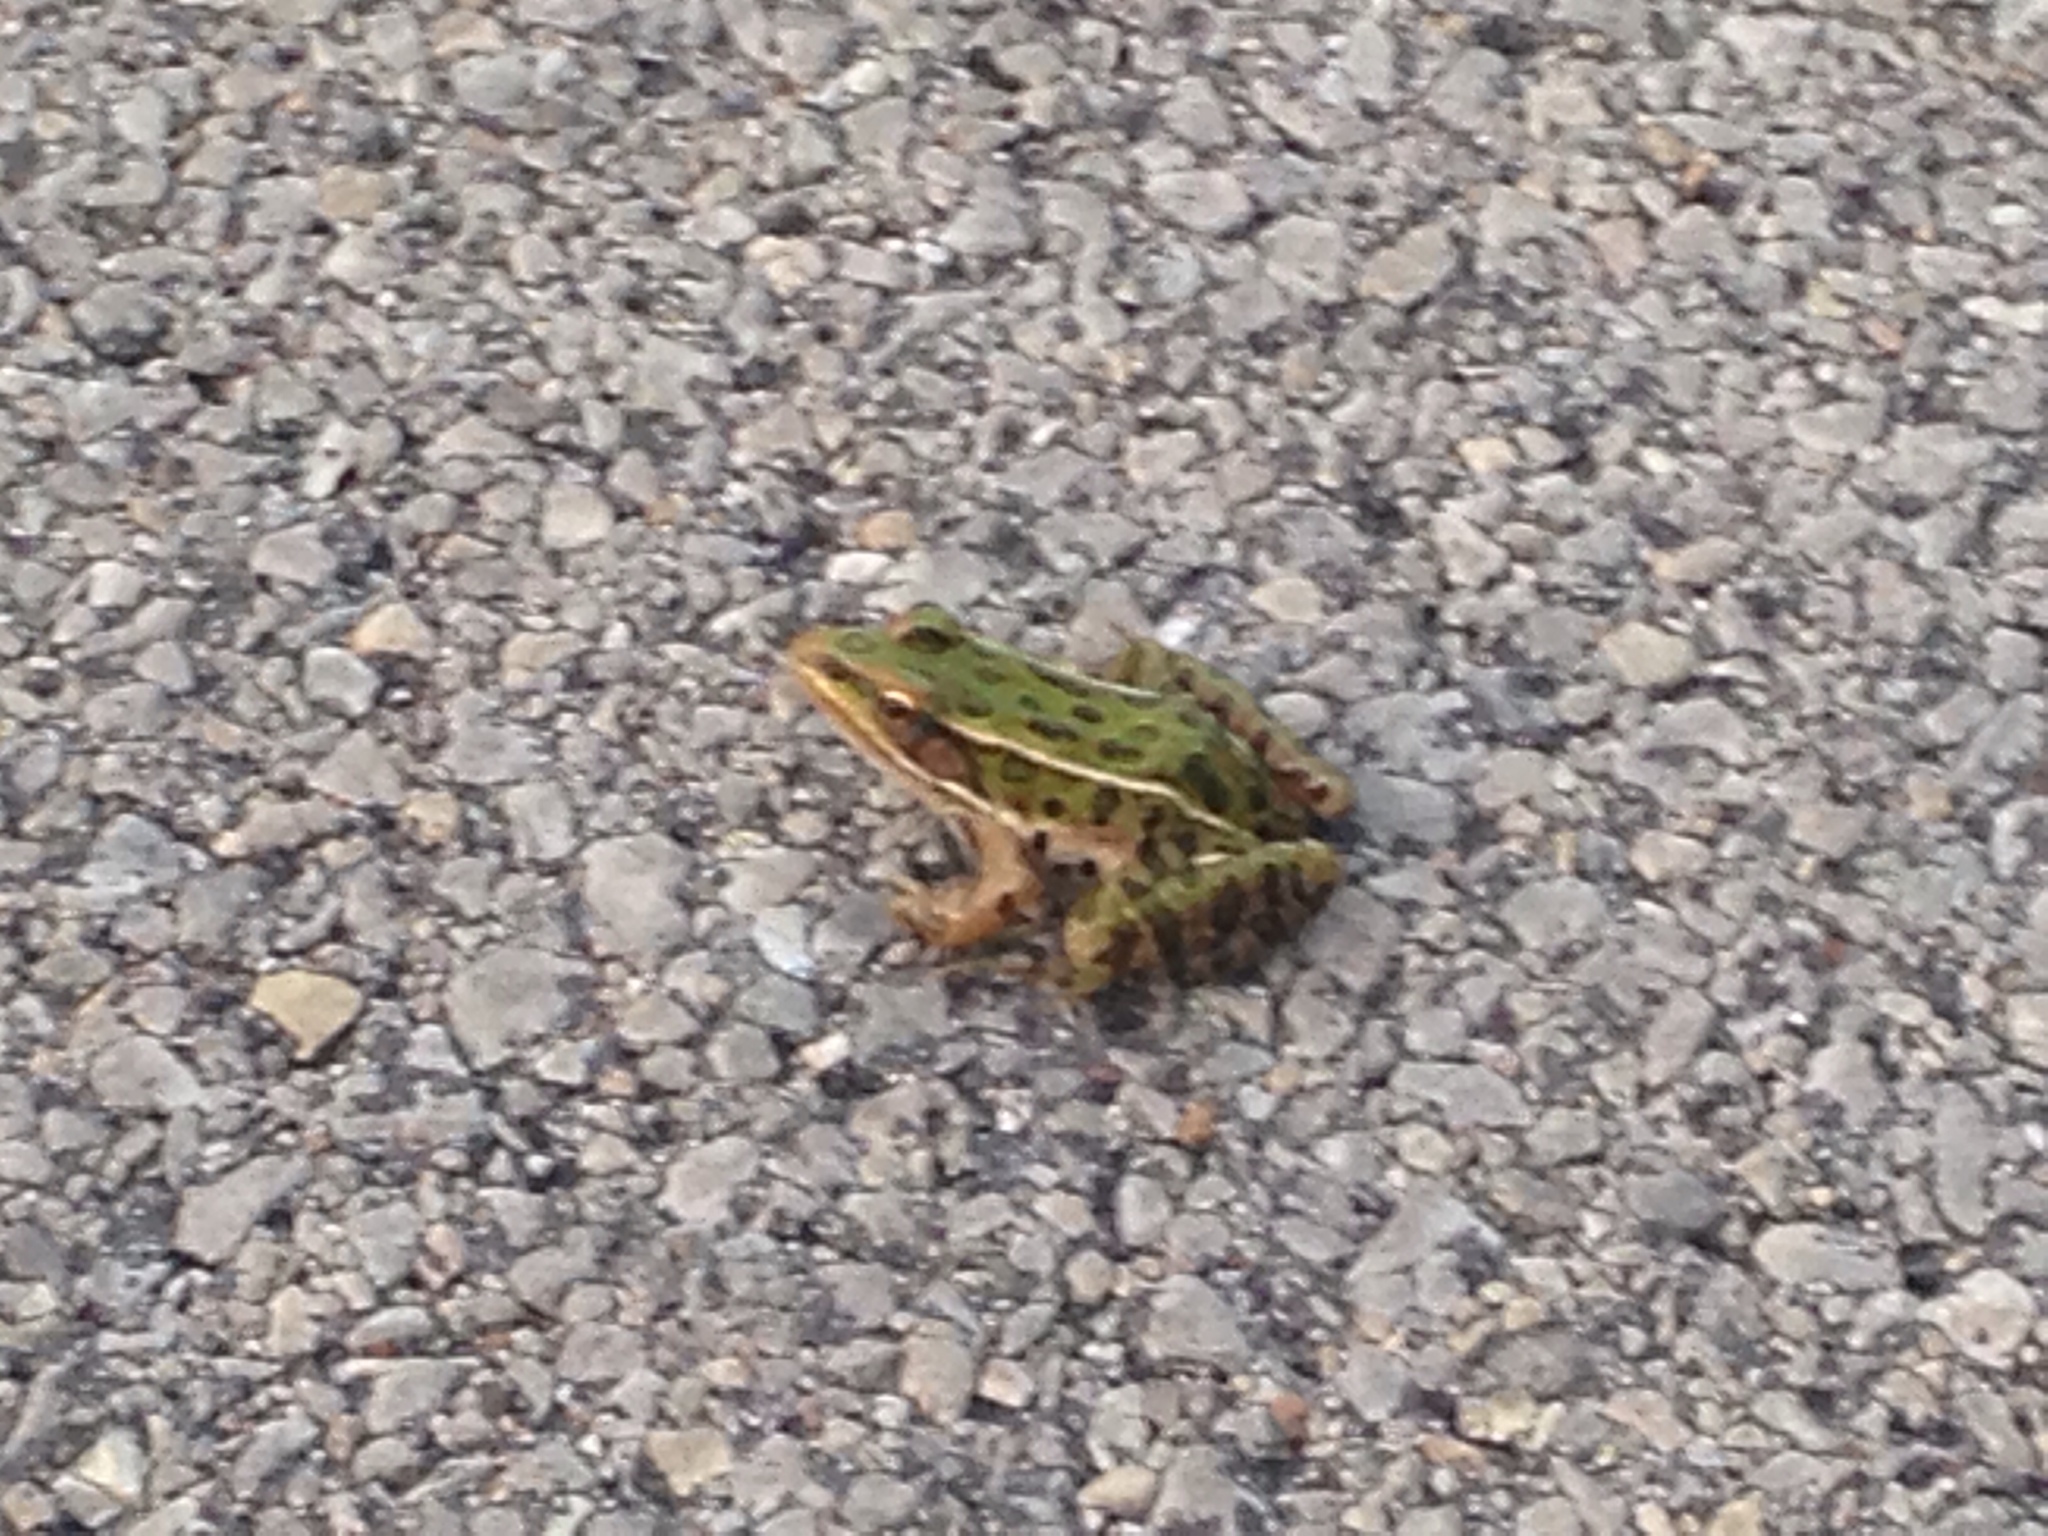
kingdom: Animalia
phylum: Chordata
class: Amphibia
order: Anura
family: Ranidae
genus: Lithobates
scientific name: Lithobates pipiens
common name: Northern leopard frog
